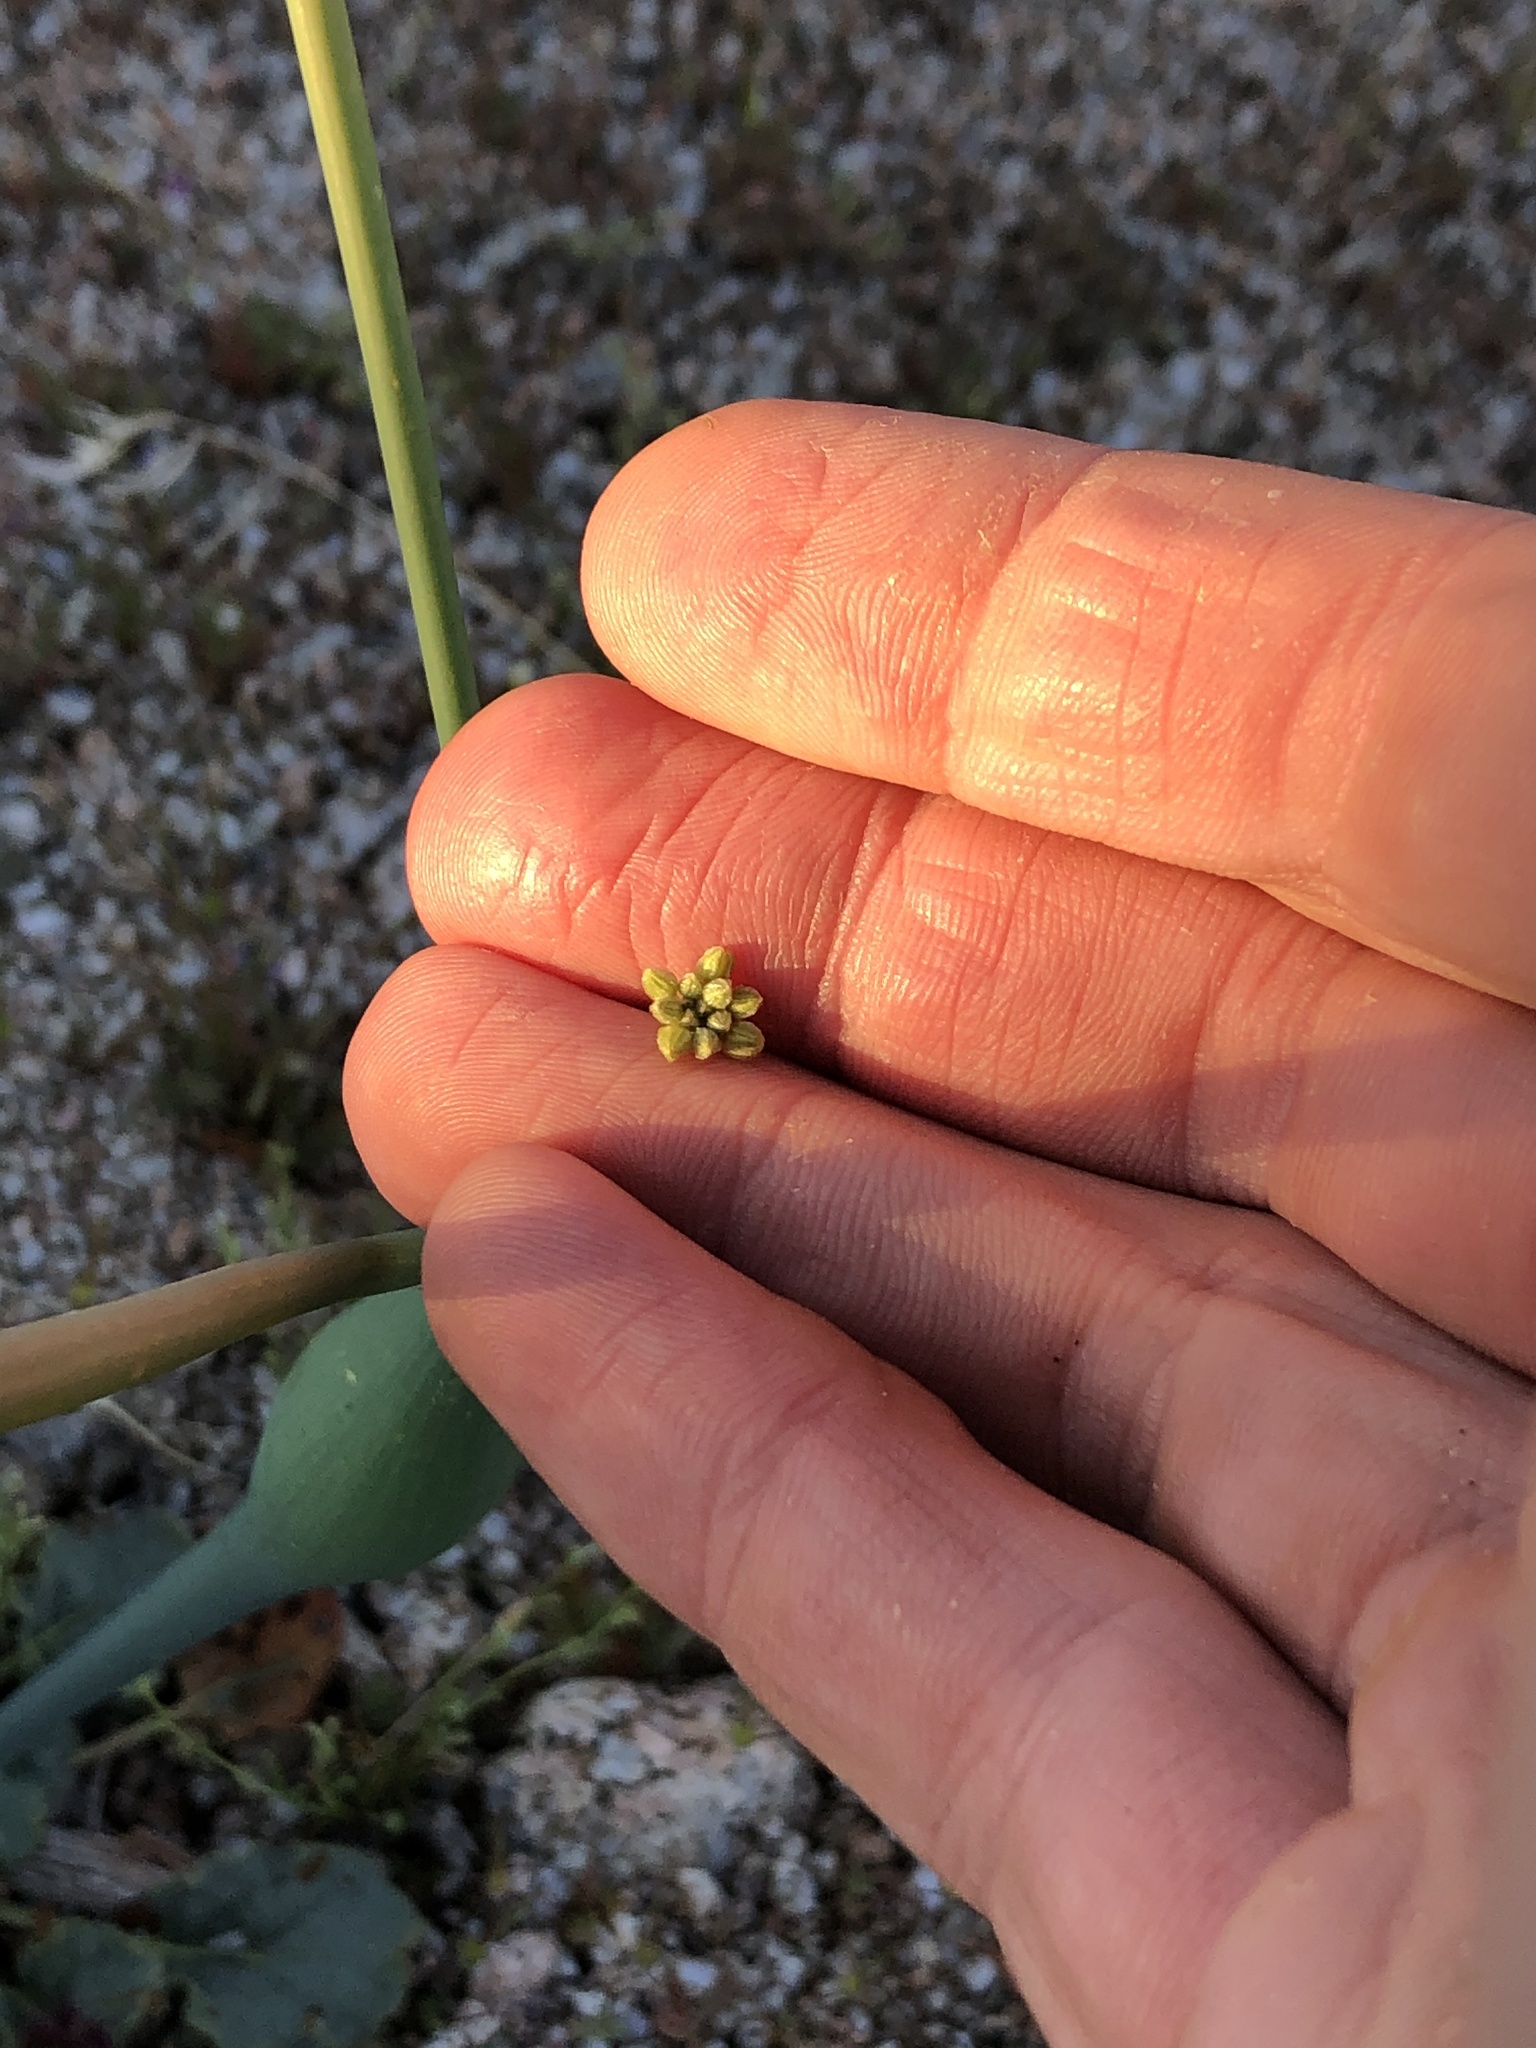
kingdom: Plantae
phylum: Tracheophyta
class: Magnoliopsida
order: Caryophyllales
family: Polygonaceae
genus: Eriogonum
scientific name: Eriogonum inflatum
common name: Desert trumpet
